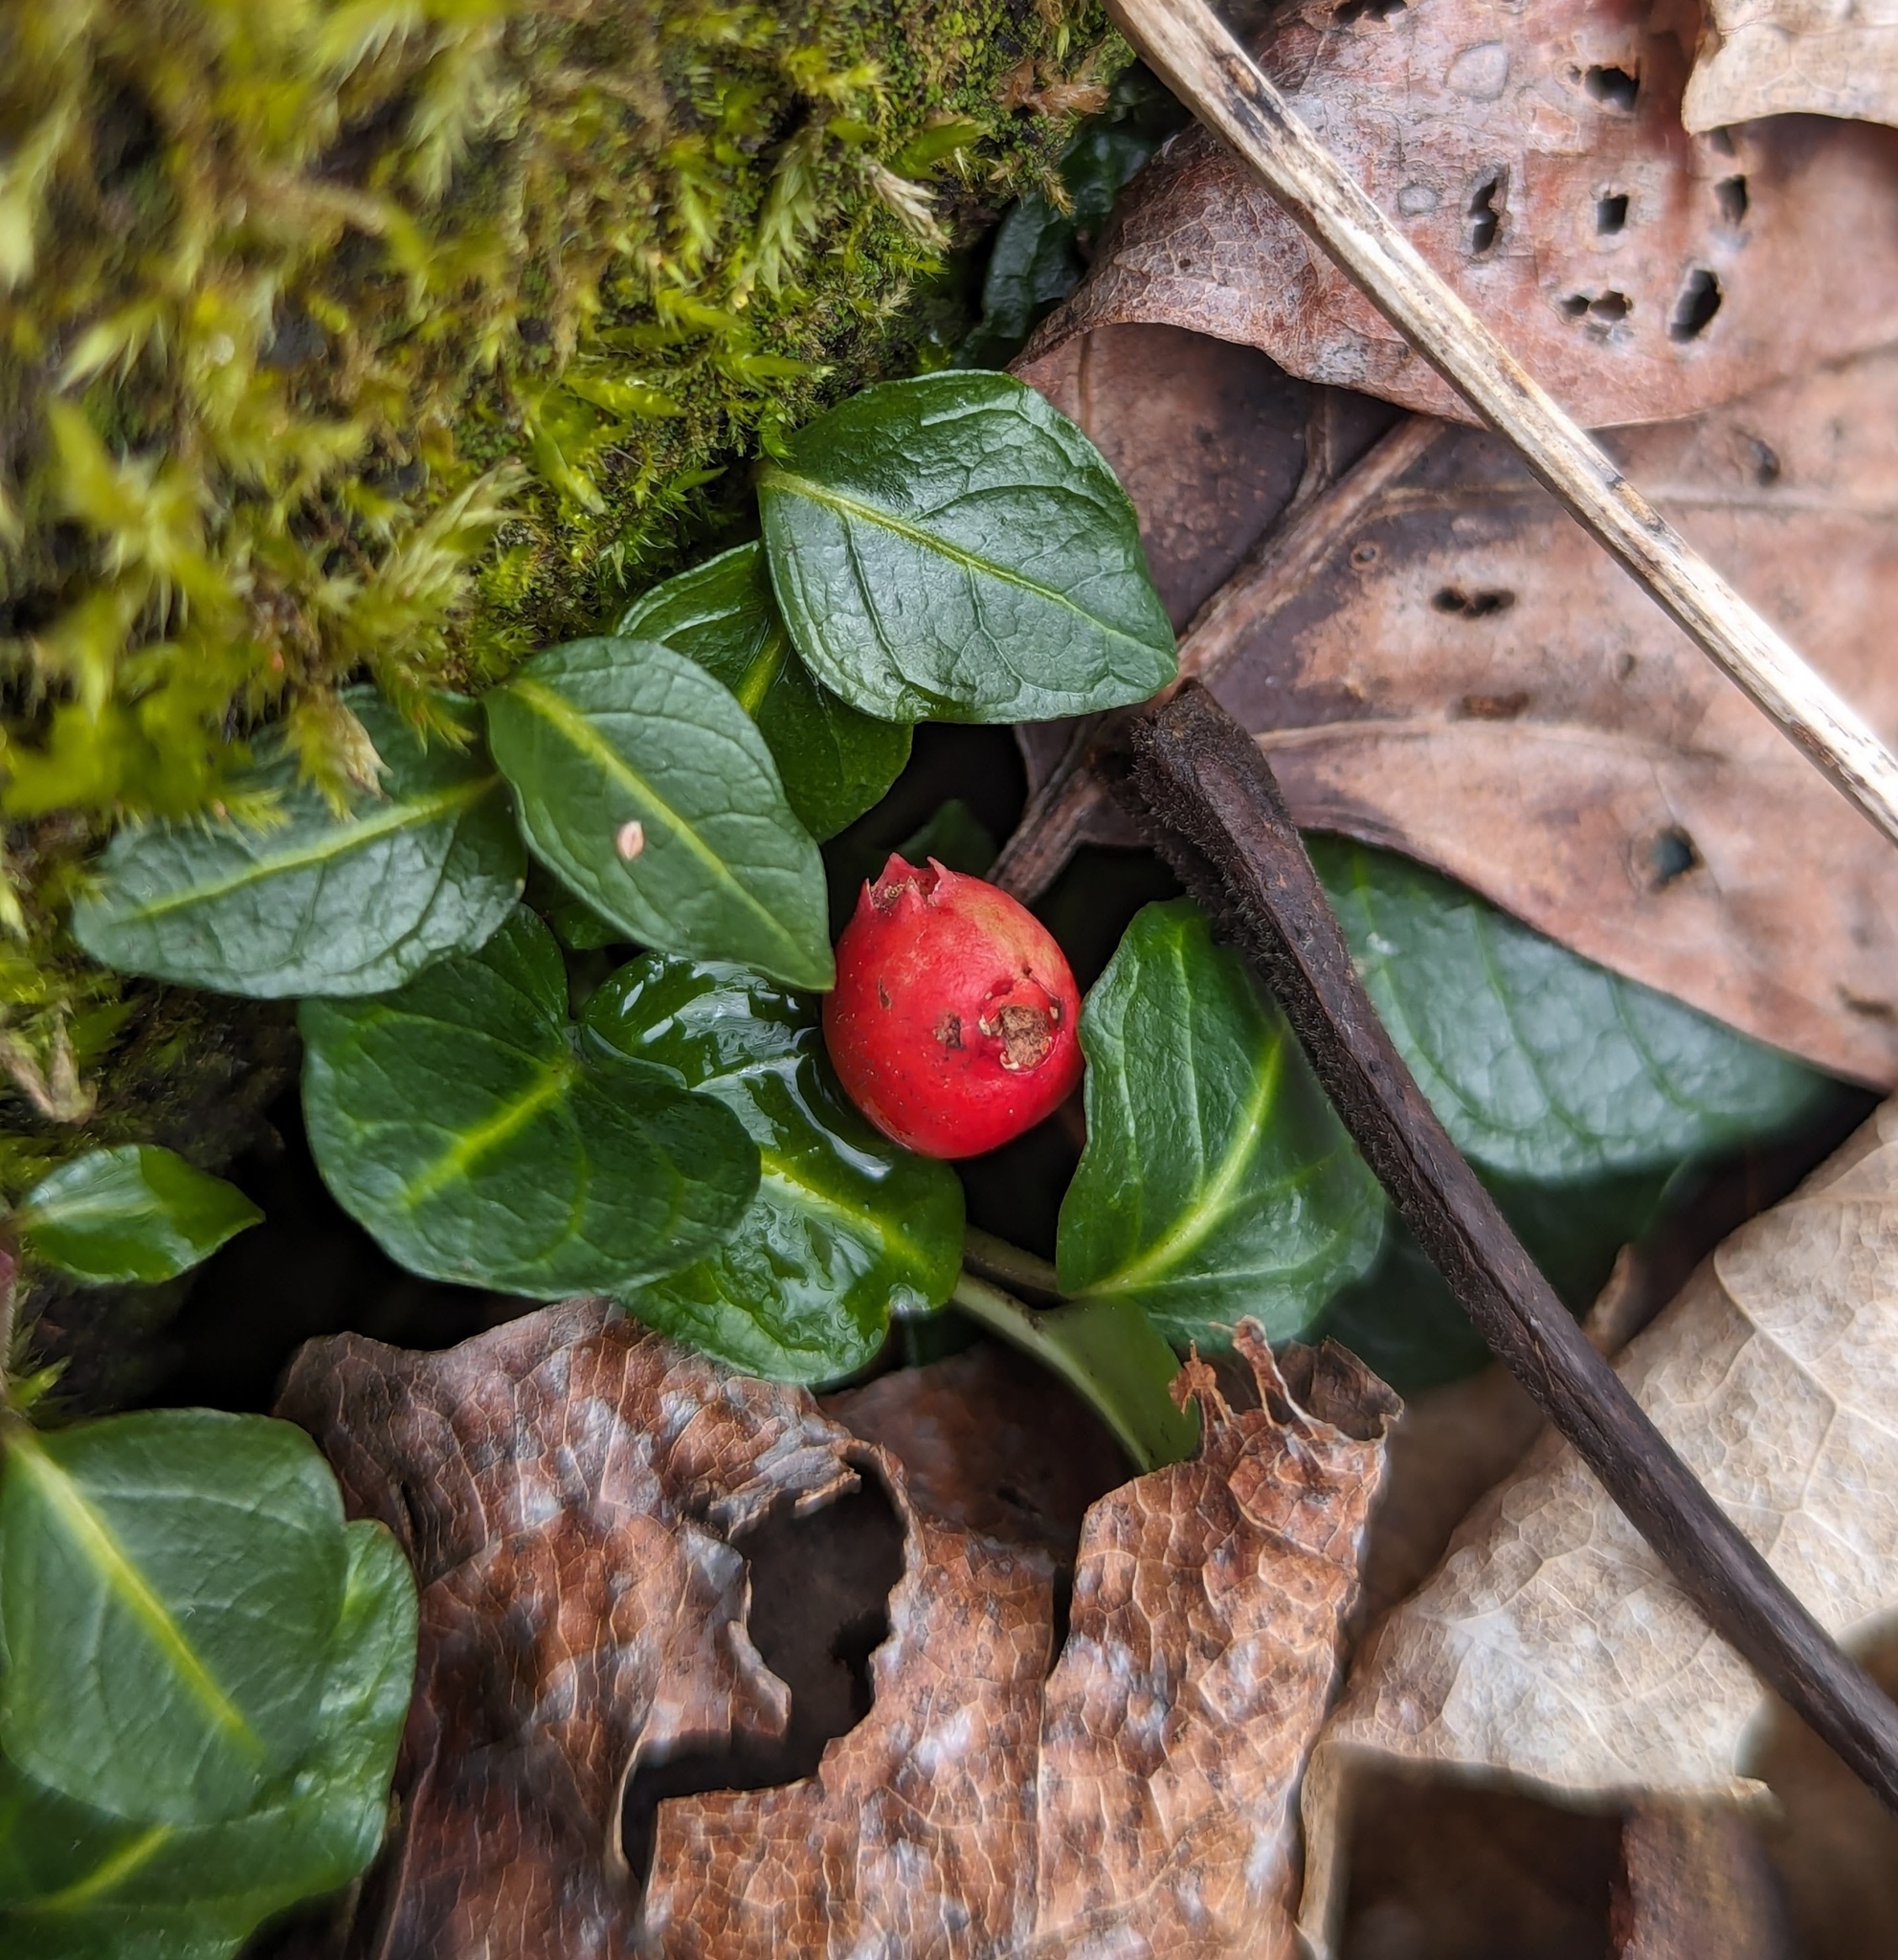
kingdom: Plantae
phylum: Tracheophyta
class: Magnoliopsida
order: Gentianales
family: Rubiaceae
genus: Mitchella
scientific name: Mitchella repens
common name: Partridge-berry
